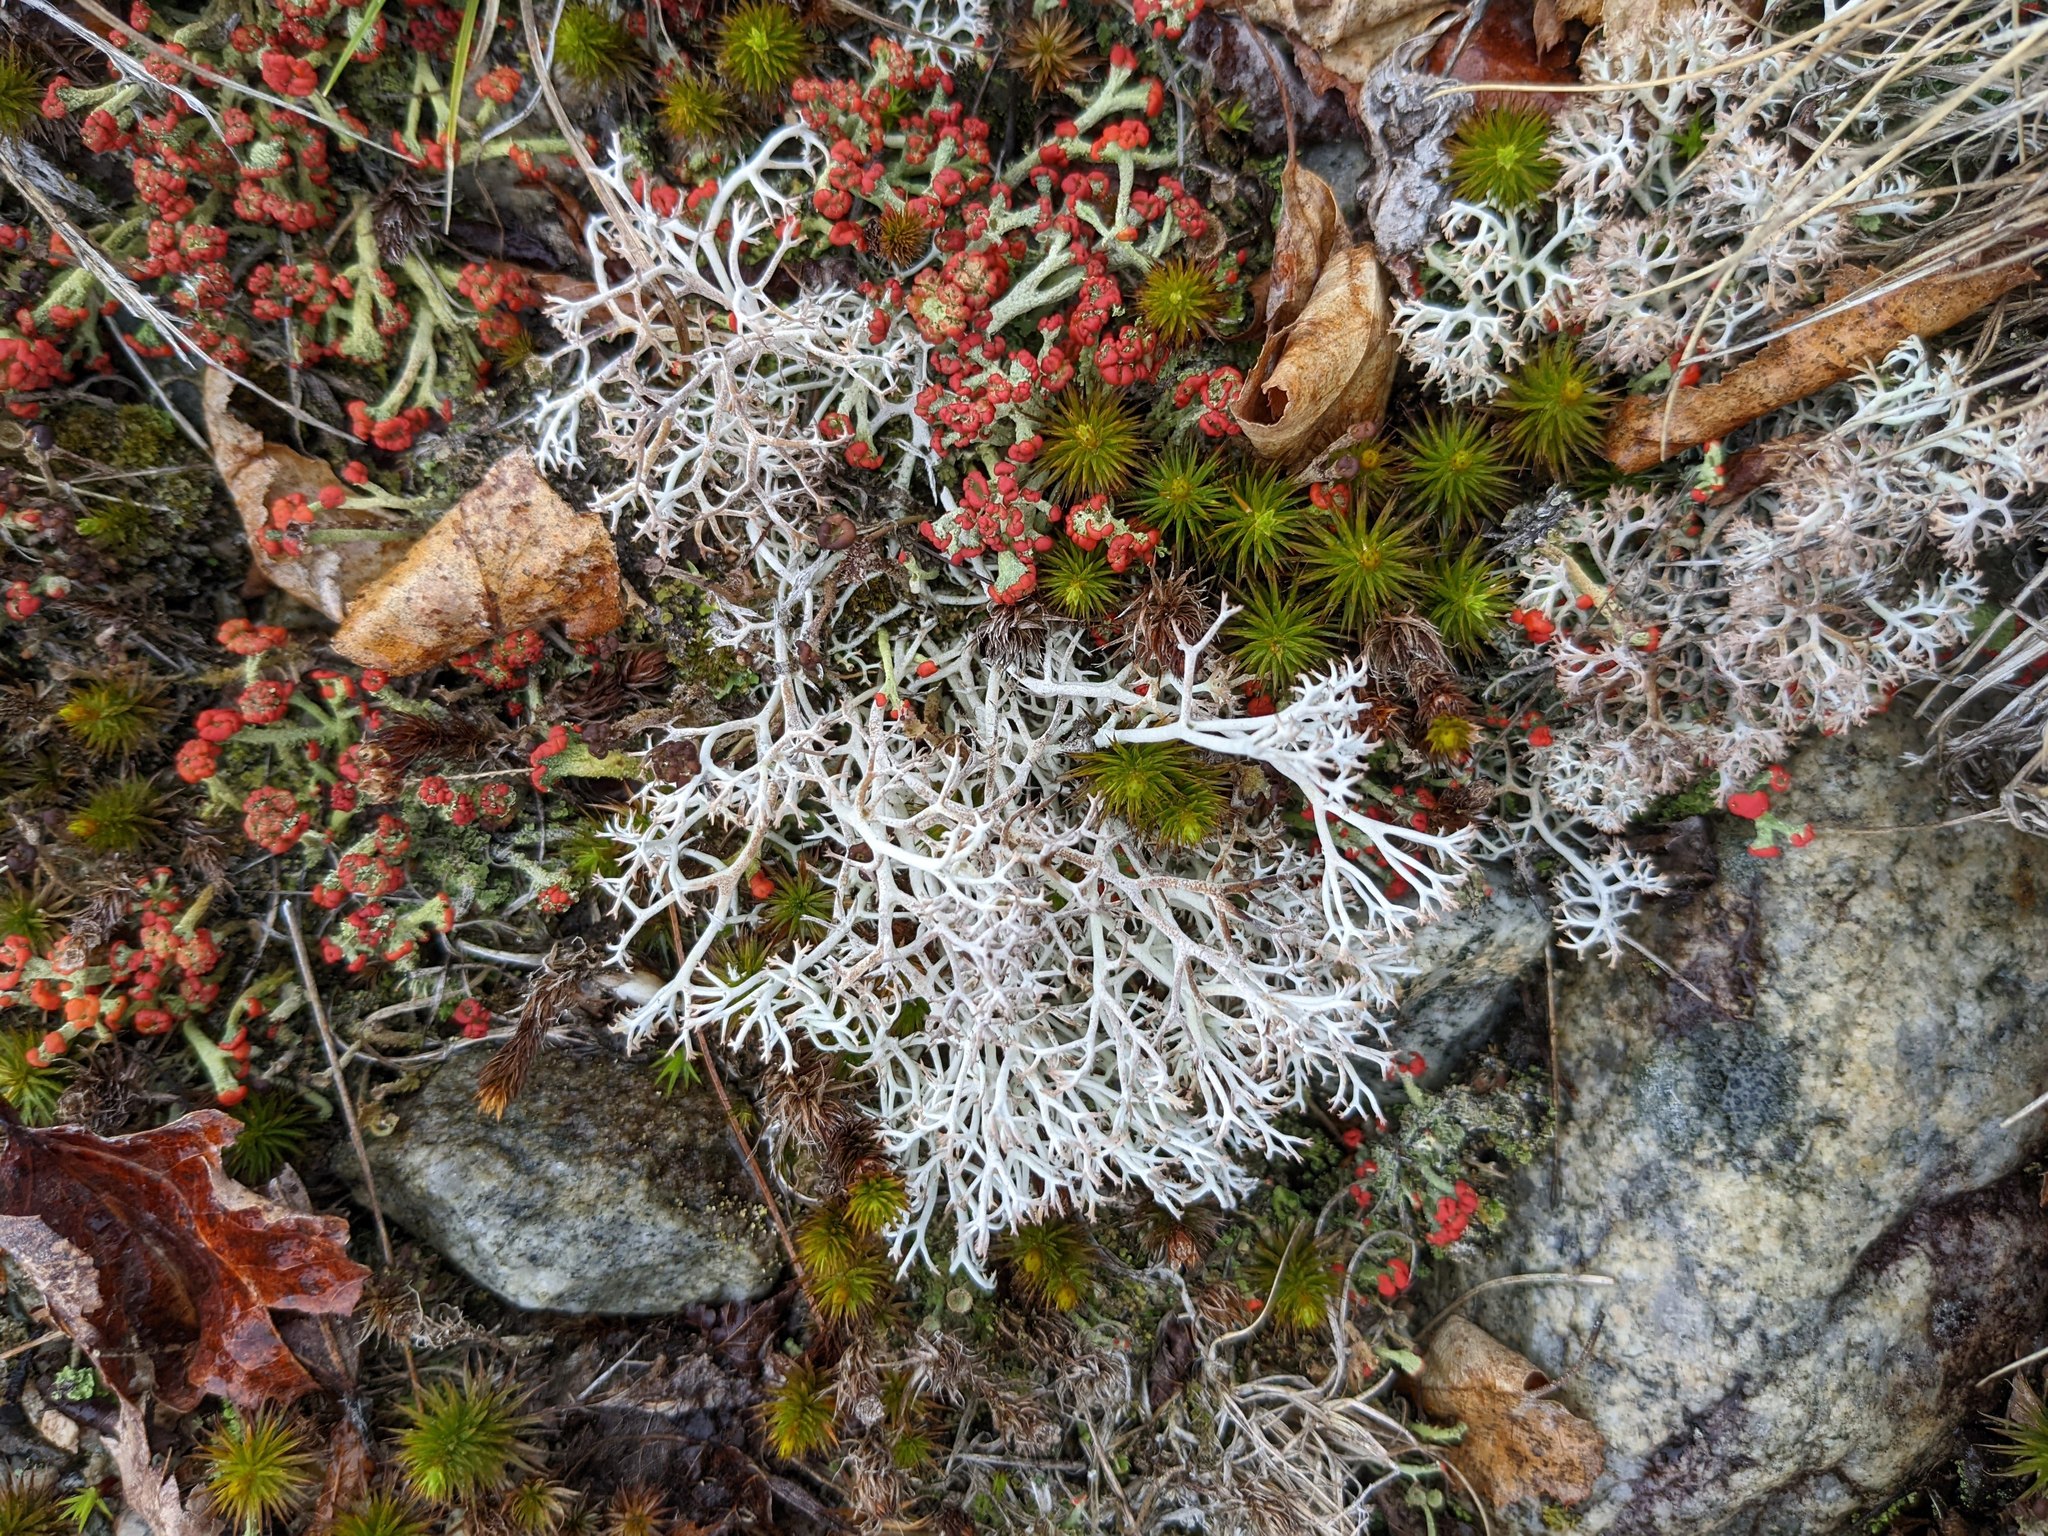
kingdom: Fungi
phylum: Ascomycota
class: Lecanoromycetes
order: Lecanorales
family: Cladoniaceae
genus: Cladonia
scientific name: Cladonia rangiferina
